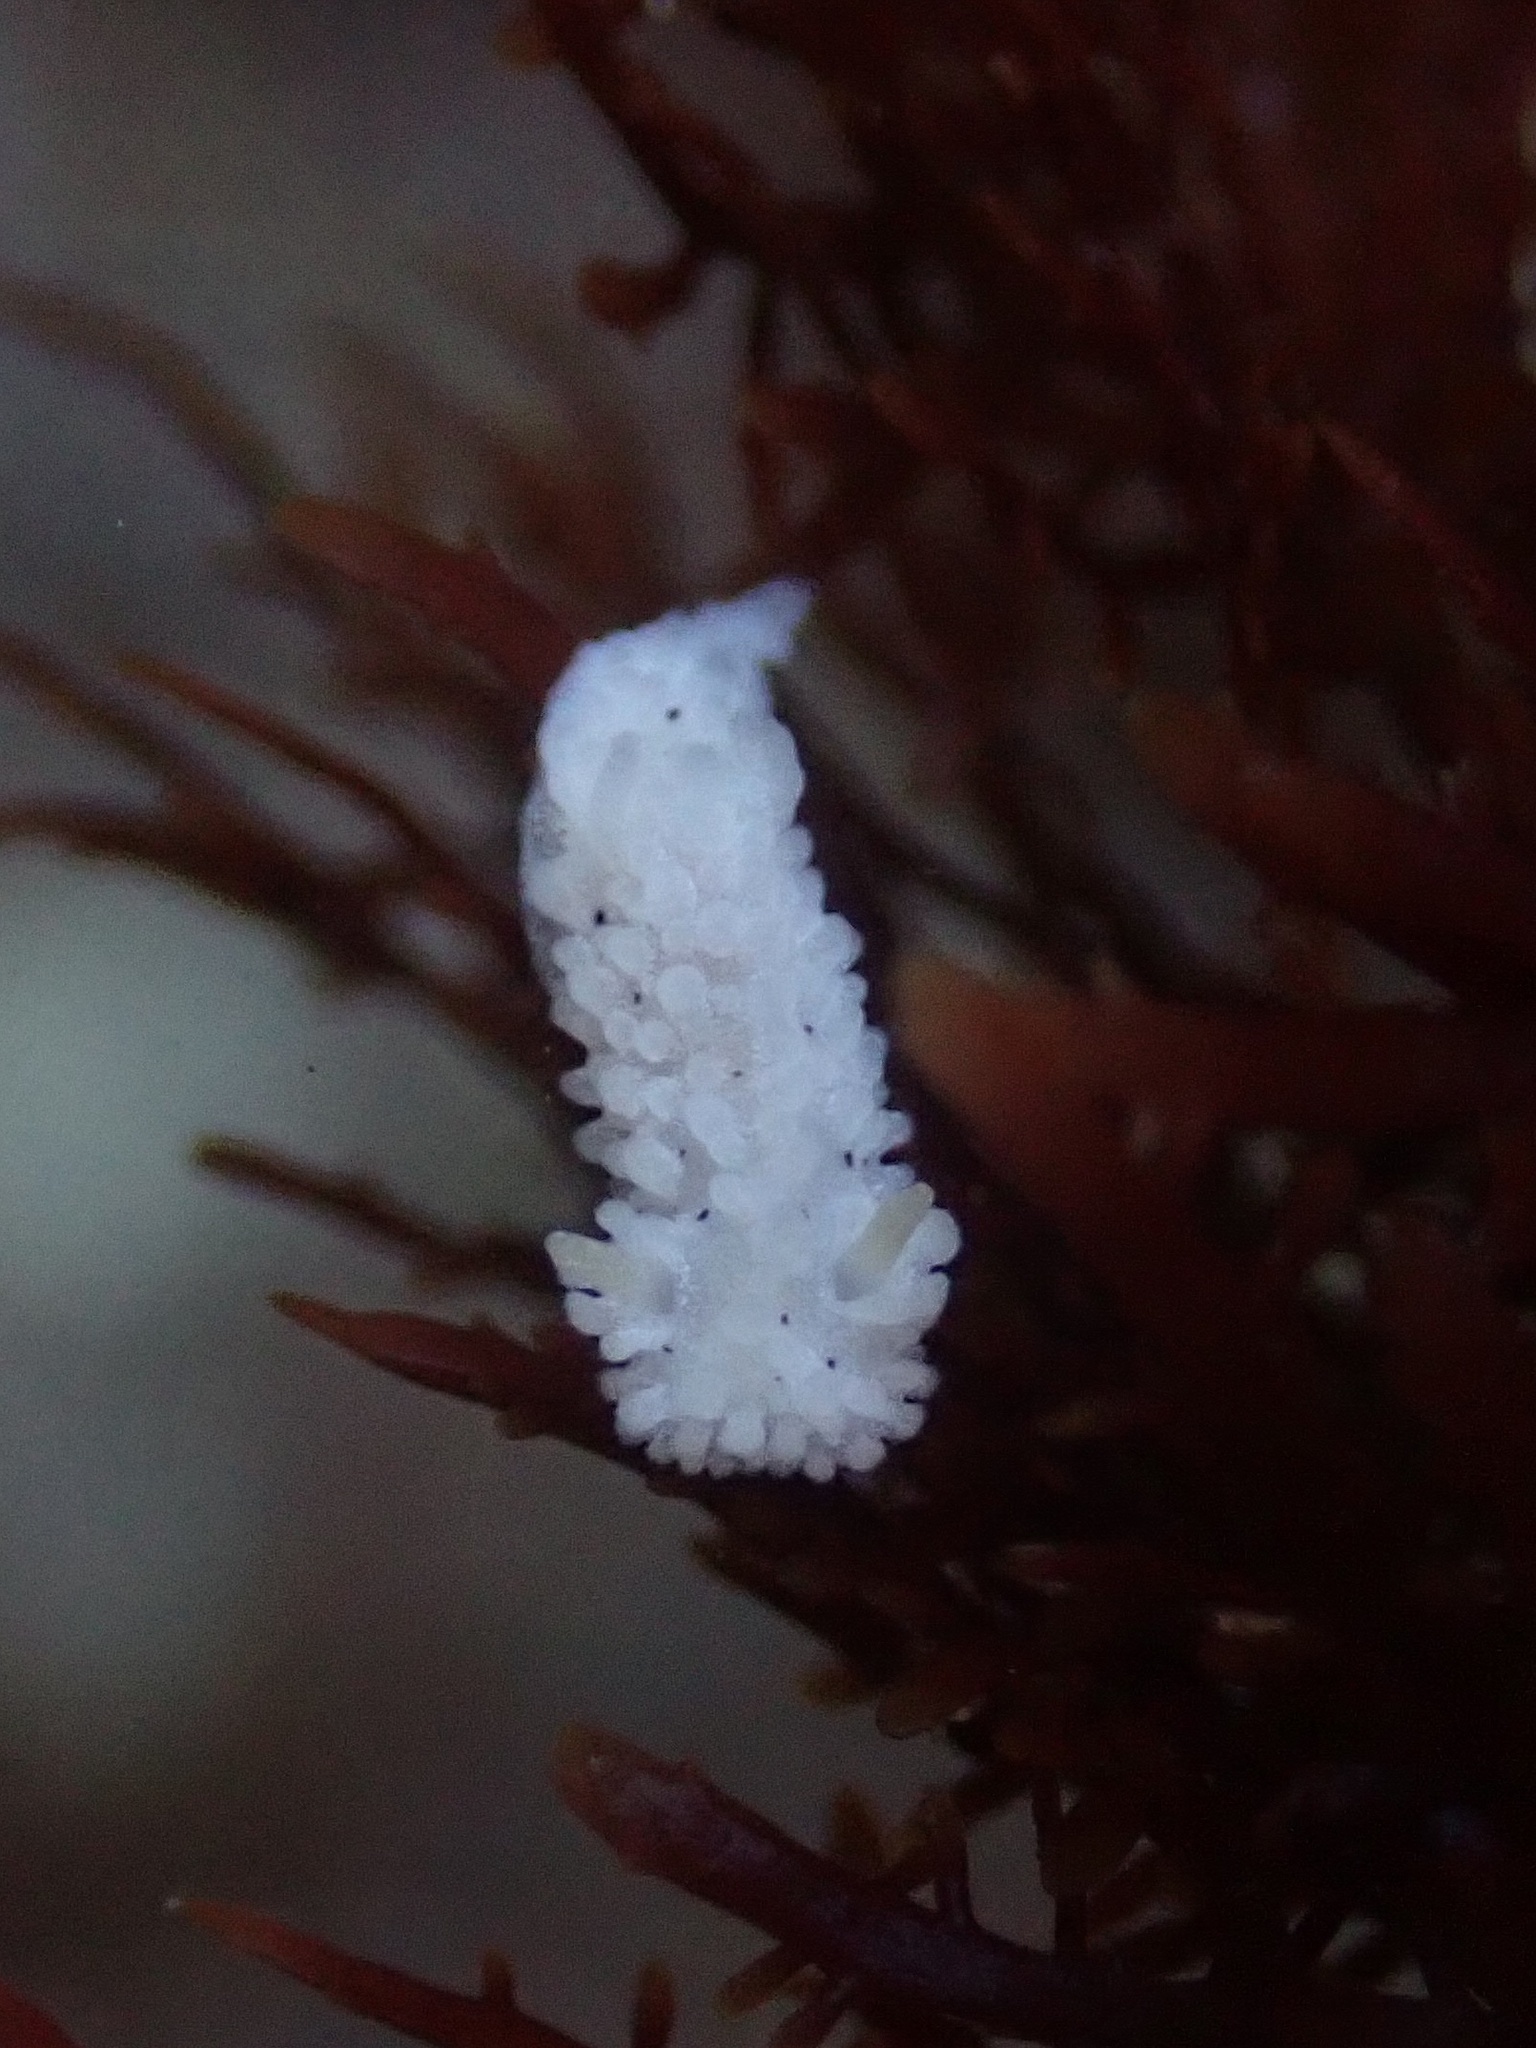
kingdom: Animalia
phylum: Mollusca
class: Gastropoda
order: Nudibranchia
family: Aegiridae
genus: Aegires
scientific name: Aegires albopunctatus
